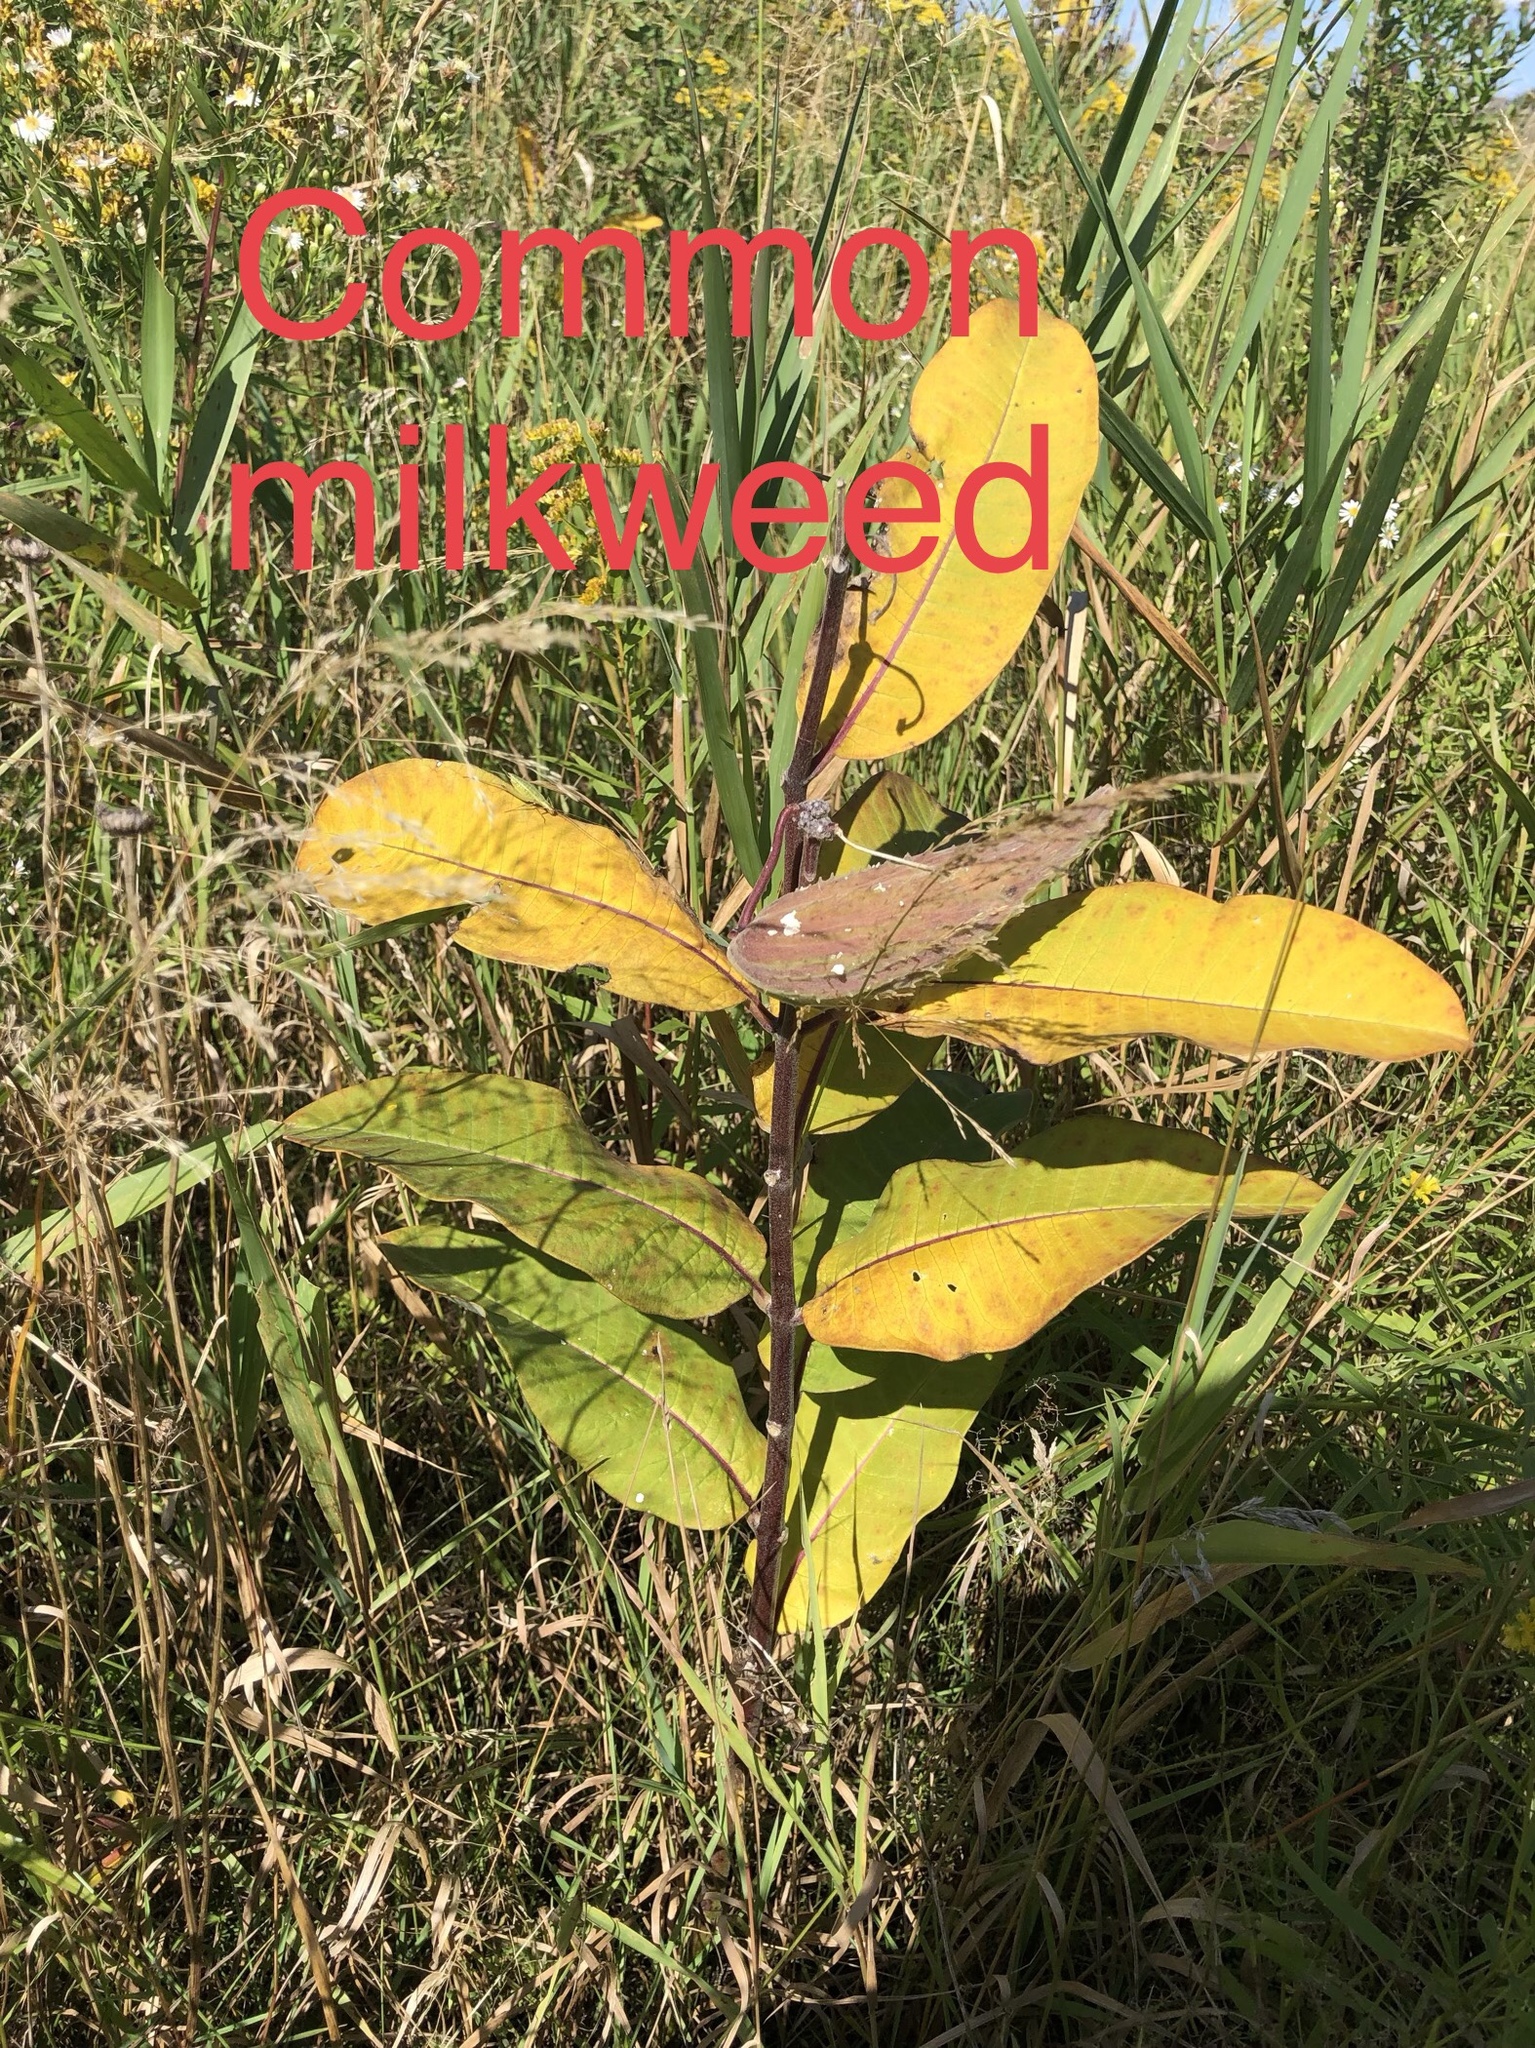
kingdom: Plantae
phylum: Tracheophyta
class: Magnoliopsida
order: Gentianales
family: Apocynaceae
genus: Asclepias
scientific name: Asclepias syriaca
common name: Common milkweed
